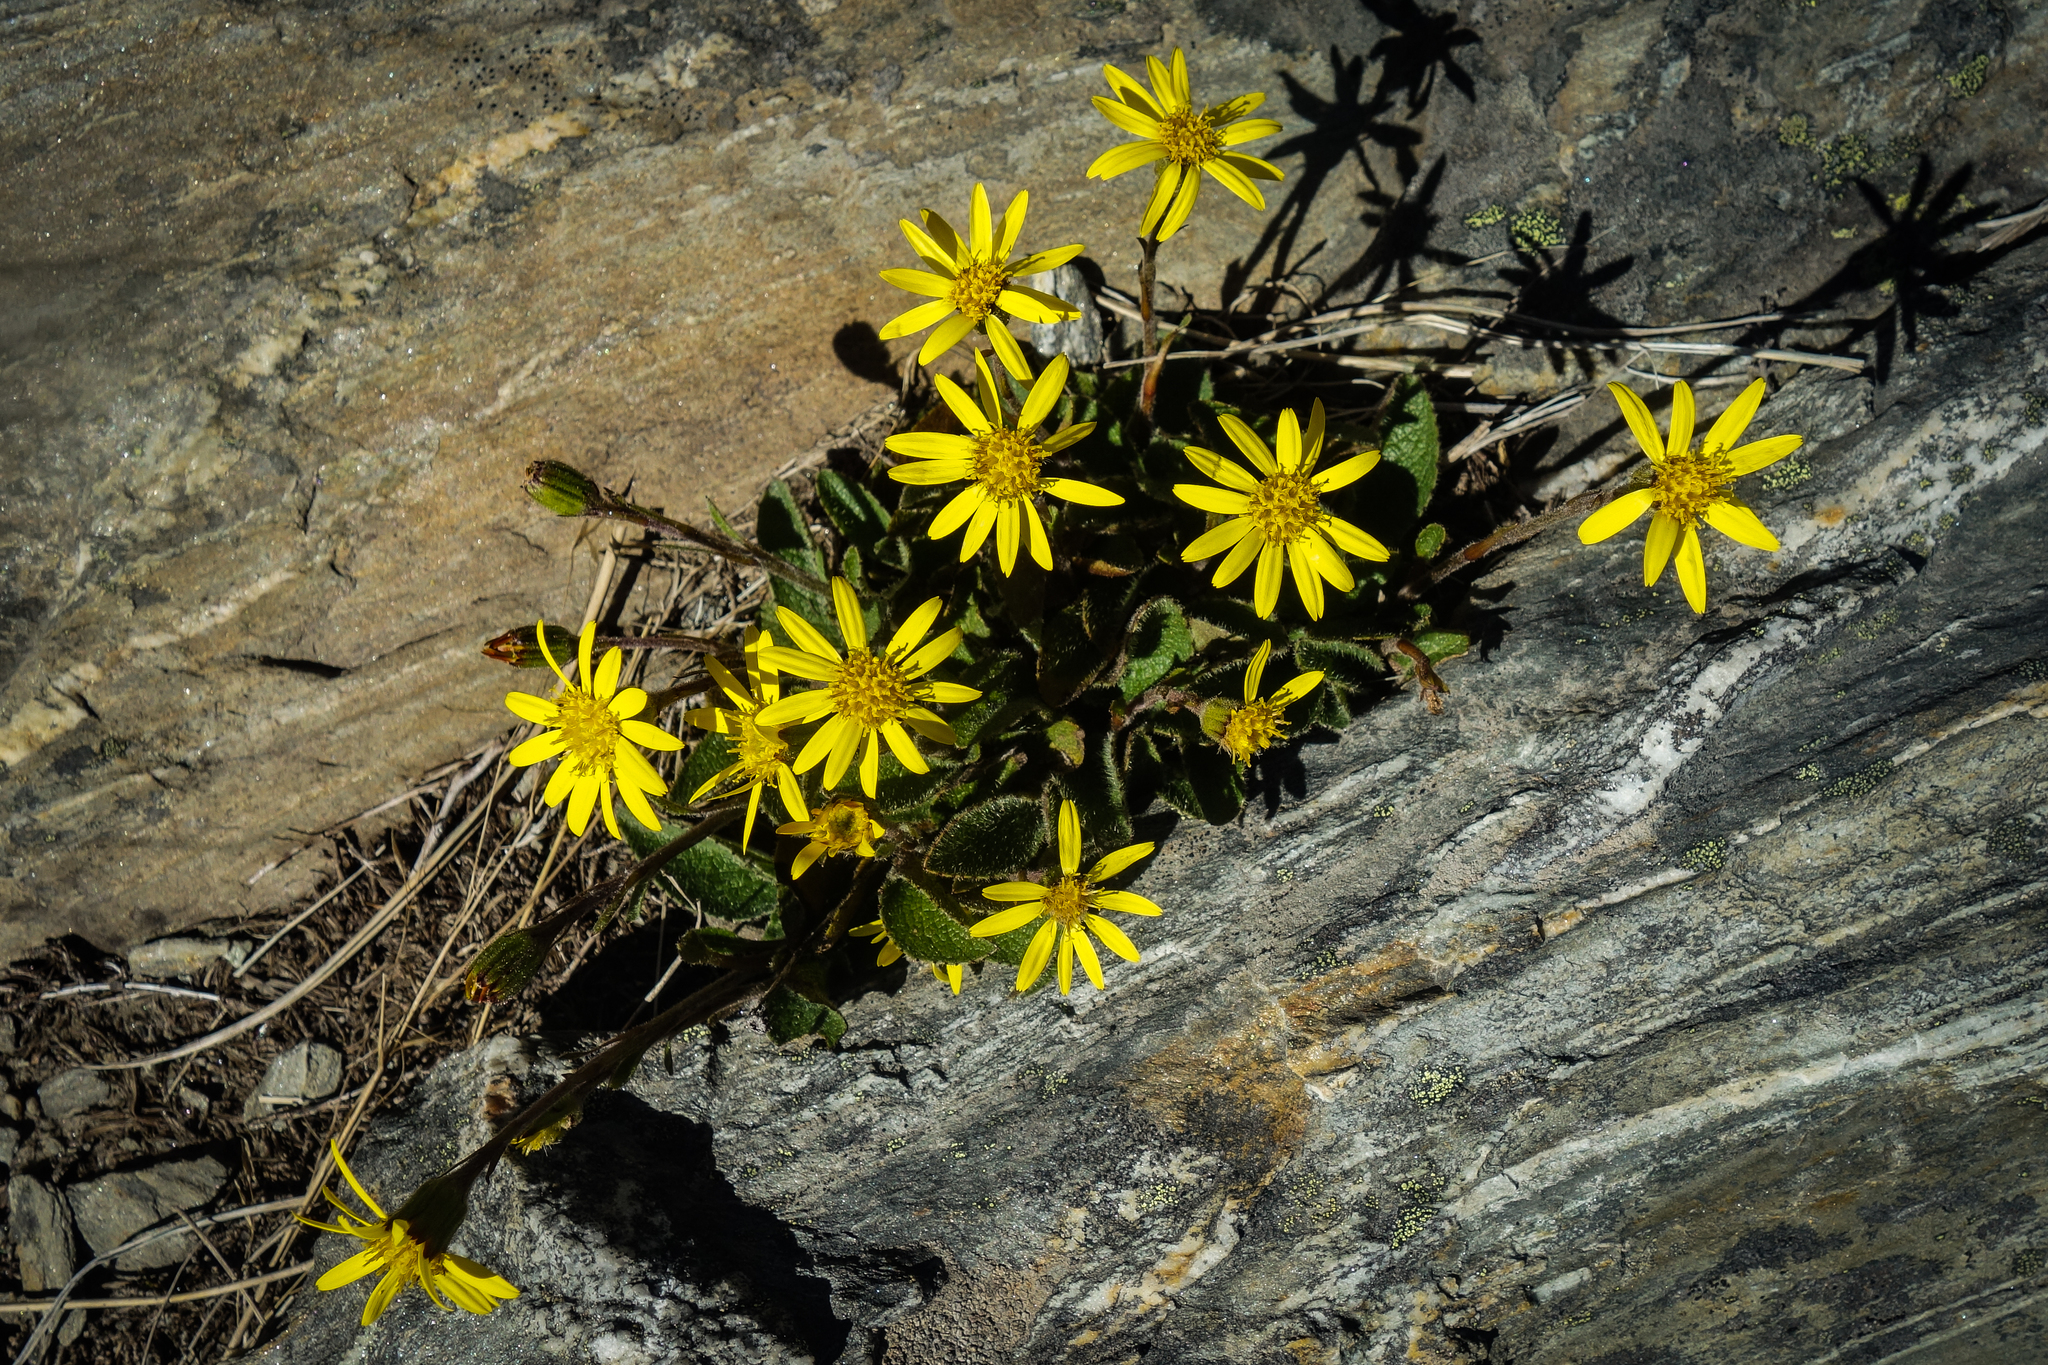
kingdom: Plantae
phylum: Tracheophyta
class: Magnoliopsida
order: Asterales
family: Asteraceae
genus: Brachyglottis
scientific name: Brachyglottis bellidioides
